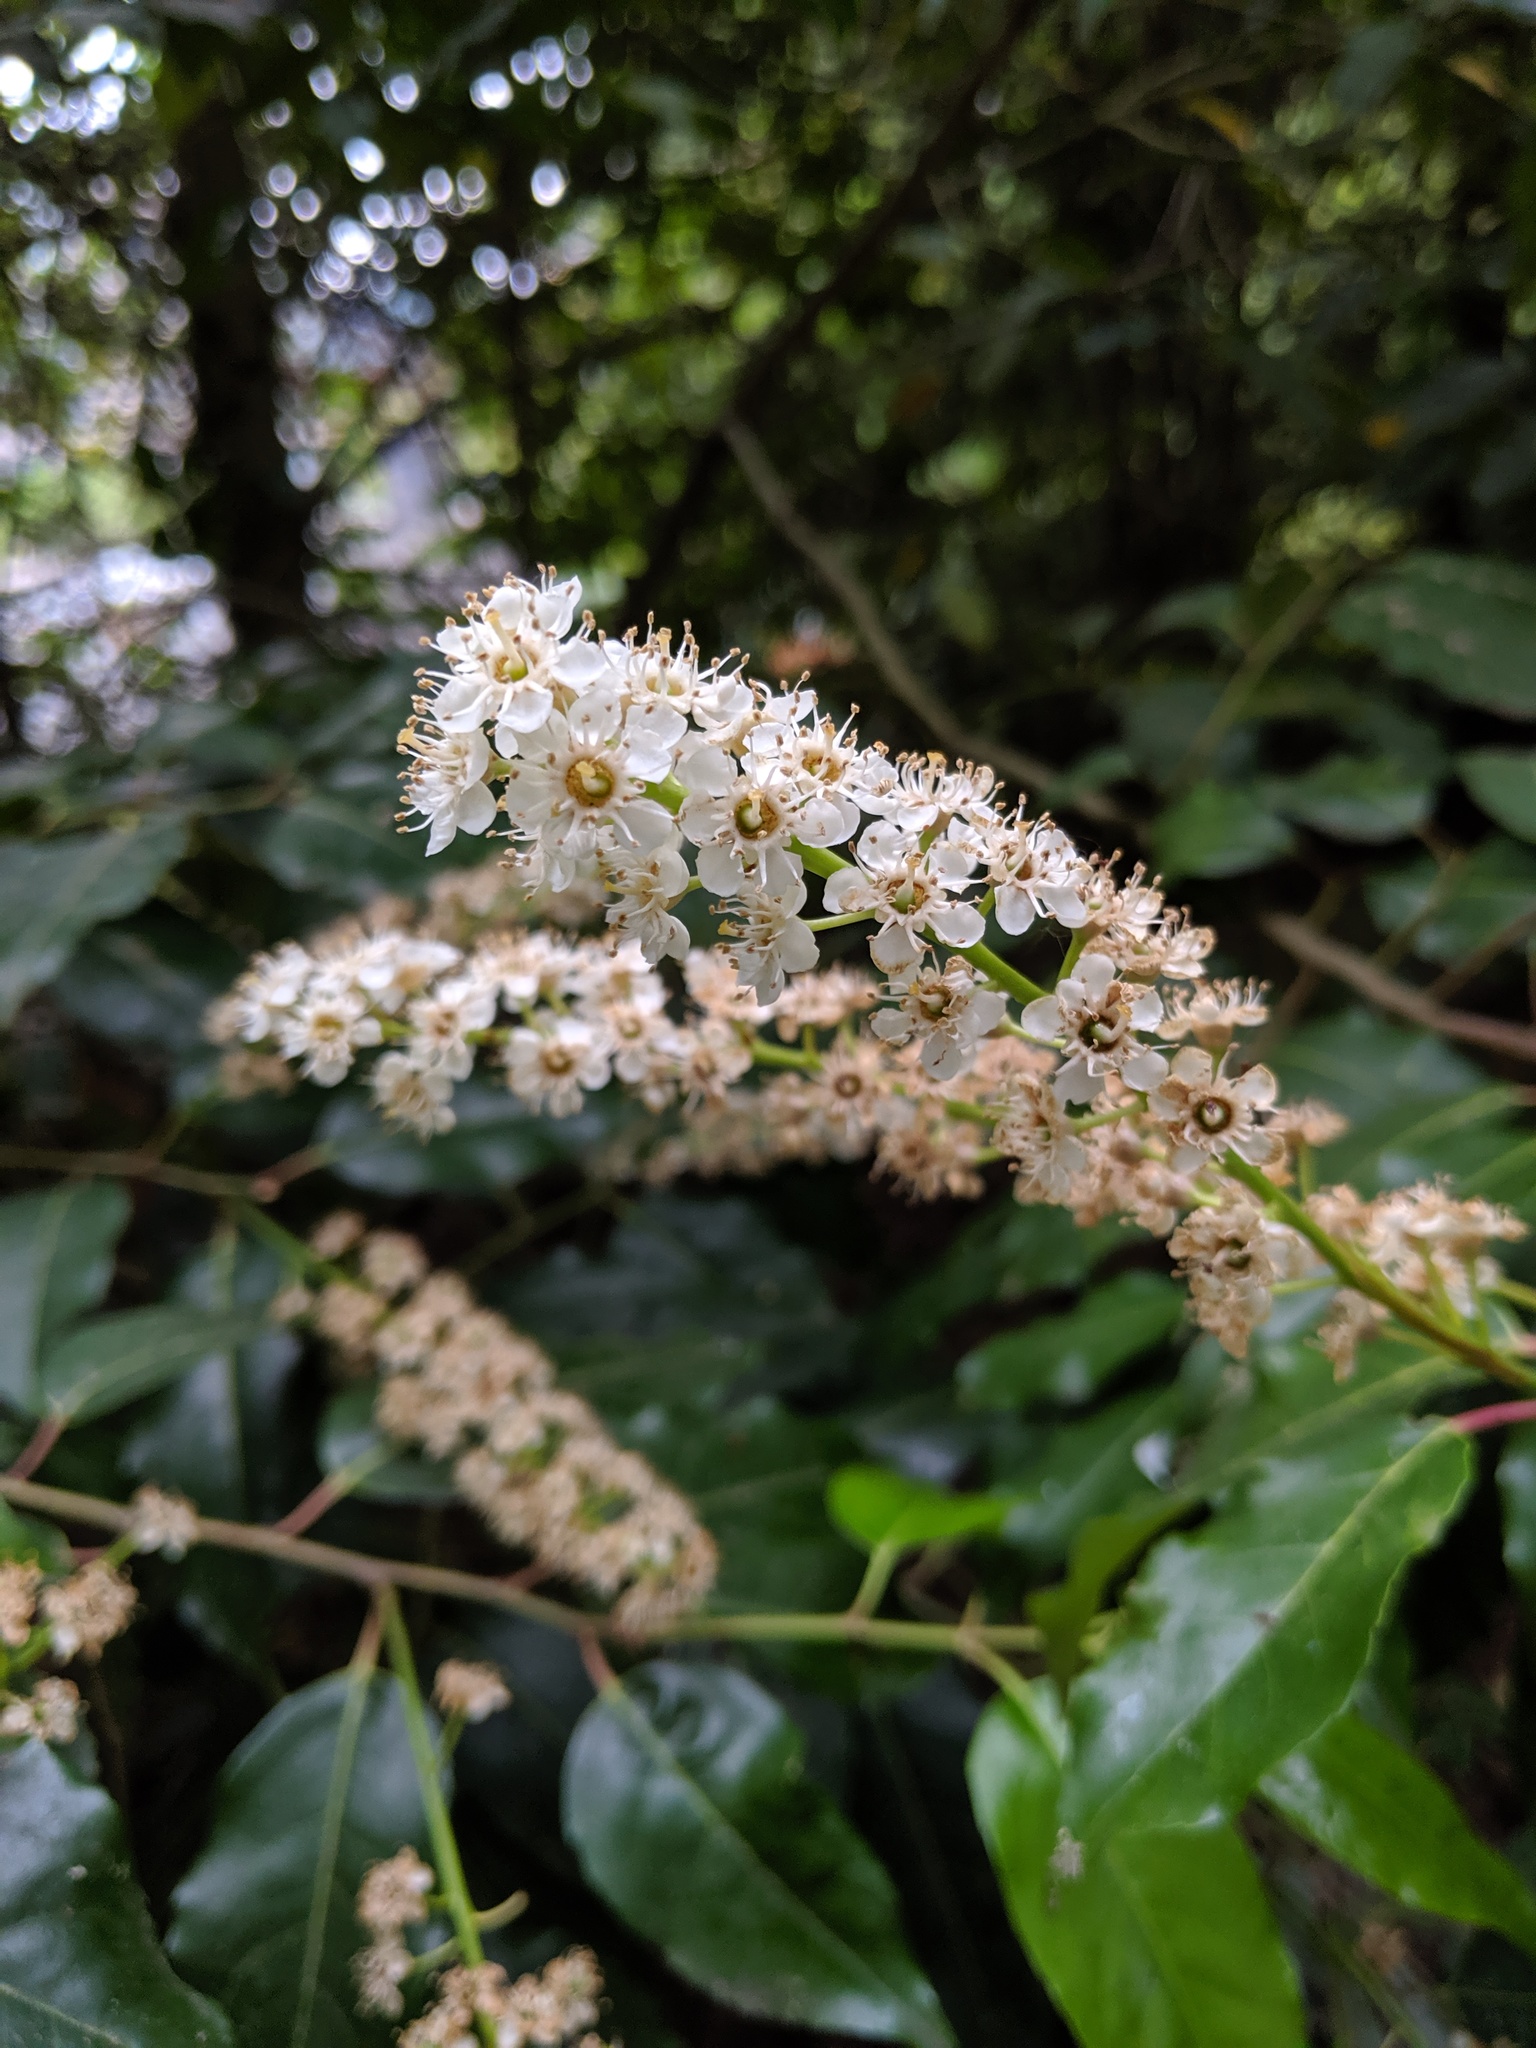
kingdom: Plantae
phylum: Tracheophyta
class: Magnoliopsida
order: Rosales
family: Rosaceae
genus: Prunus
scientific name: Prunus laurocerasus
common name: Cherry laurel
